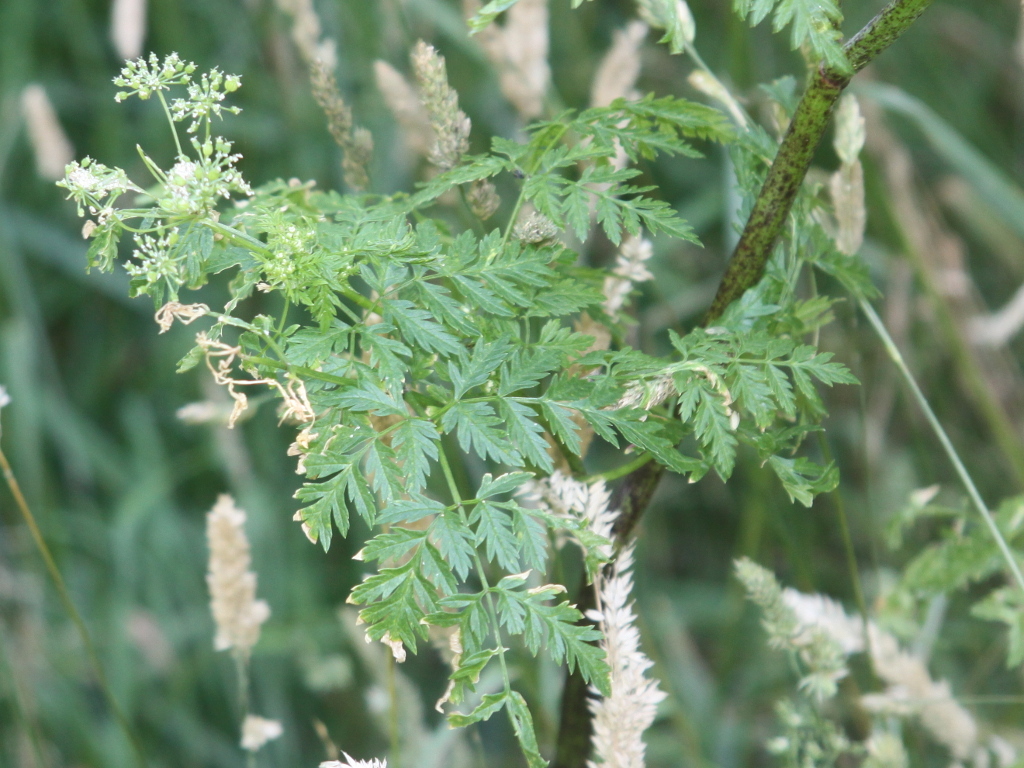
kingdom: Plantae
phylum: Tracheophyta
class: Magnoliopsida
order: Apiales
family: Apiaceae
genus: Conium
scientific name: Conium maculatum
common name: Hemlock
